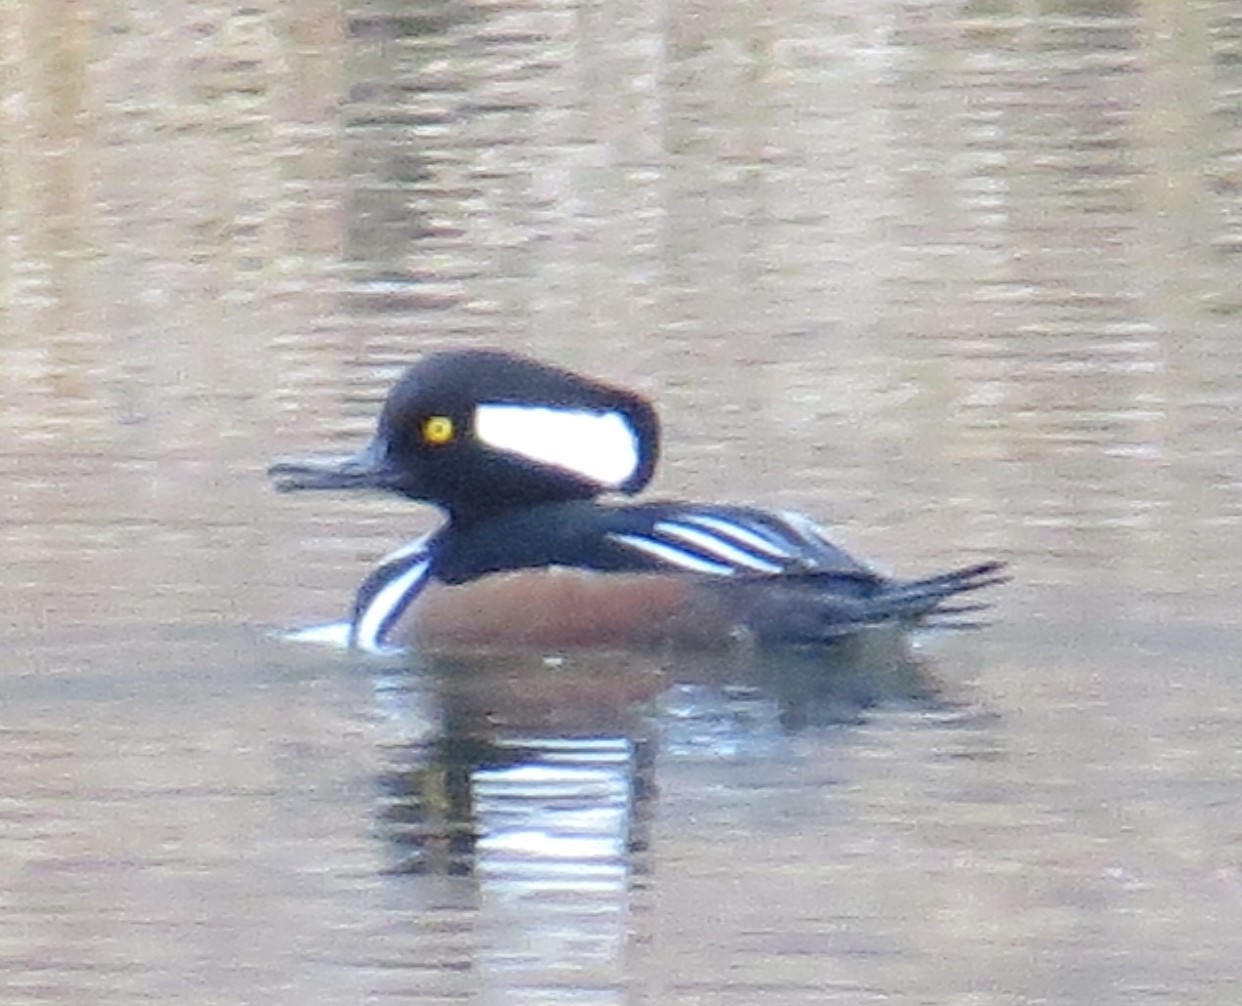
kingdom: Animalia
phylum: Chordata
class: Aves
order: Anseriformes
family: Anatidae
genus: Lophodytes
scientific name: Lophodytes cucullatus
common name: Hooded merganser
